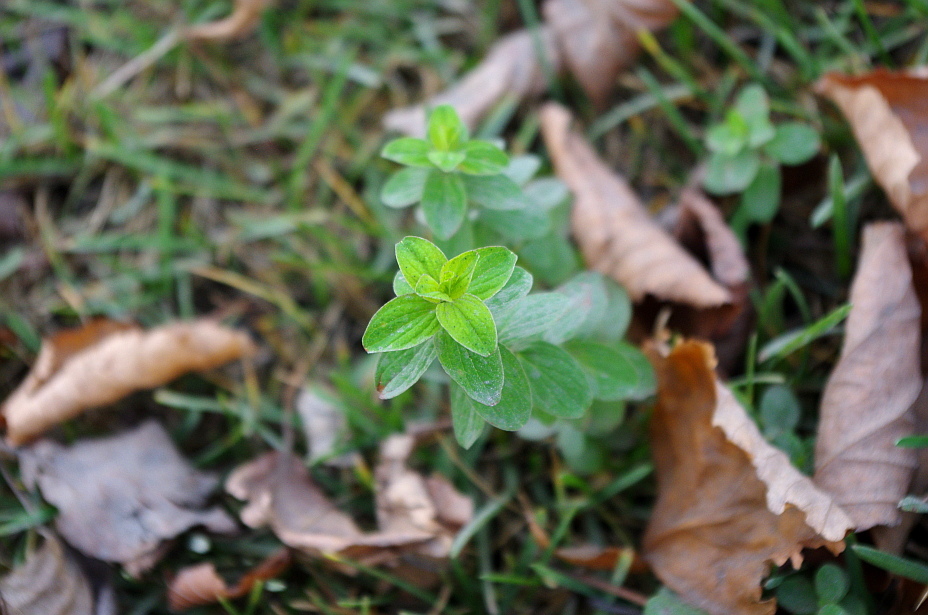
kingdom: Plantae
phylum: Tracheophyta
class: Magnoliopsida
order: Malpighiales
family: Hypericaceae
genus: Hypericum
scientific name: Hypericum maculatum
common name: Imperforate st. john's-wort
